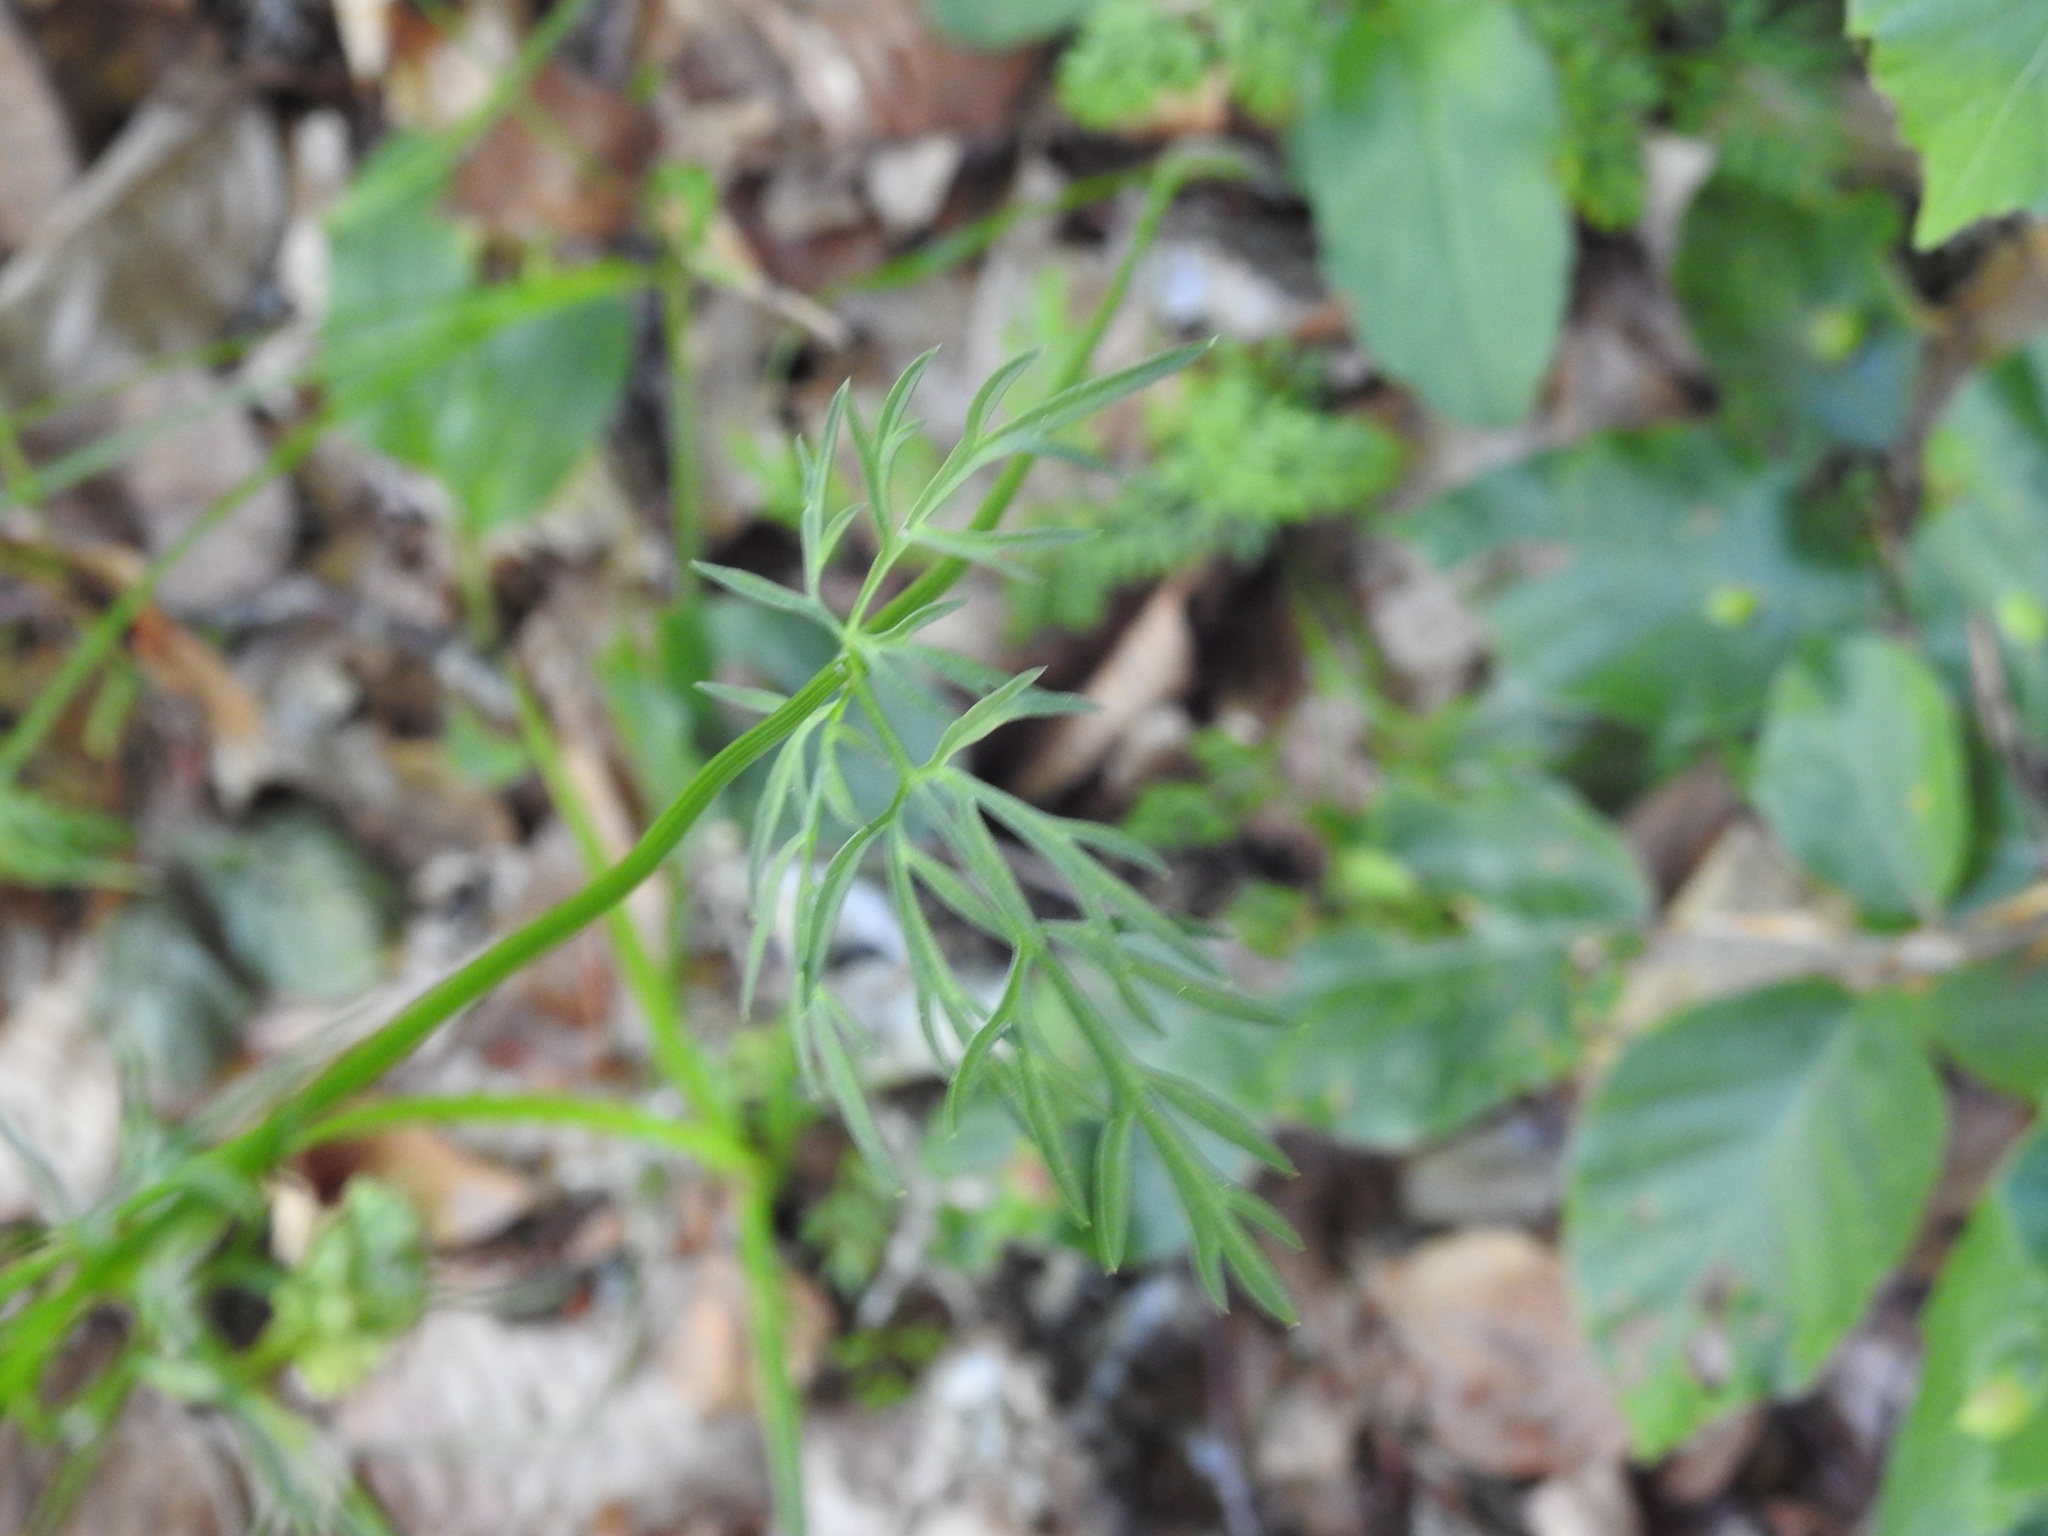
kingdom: Plantae
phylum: Tracheophyta
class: Magnoliopsida
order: Apiales
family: Apiaceae
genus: Conopodium
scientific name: Conopodium majus
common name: Pignut
